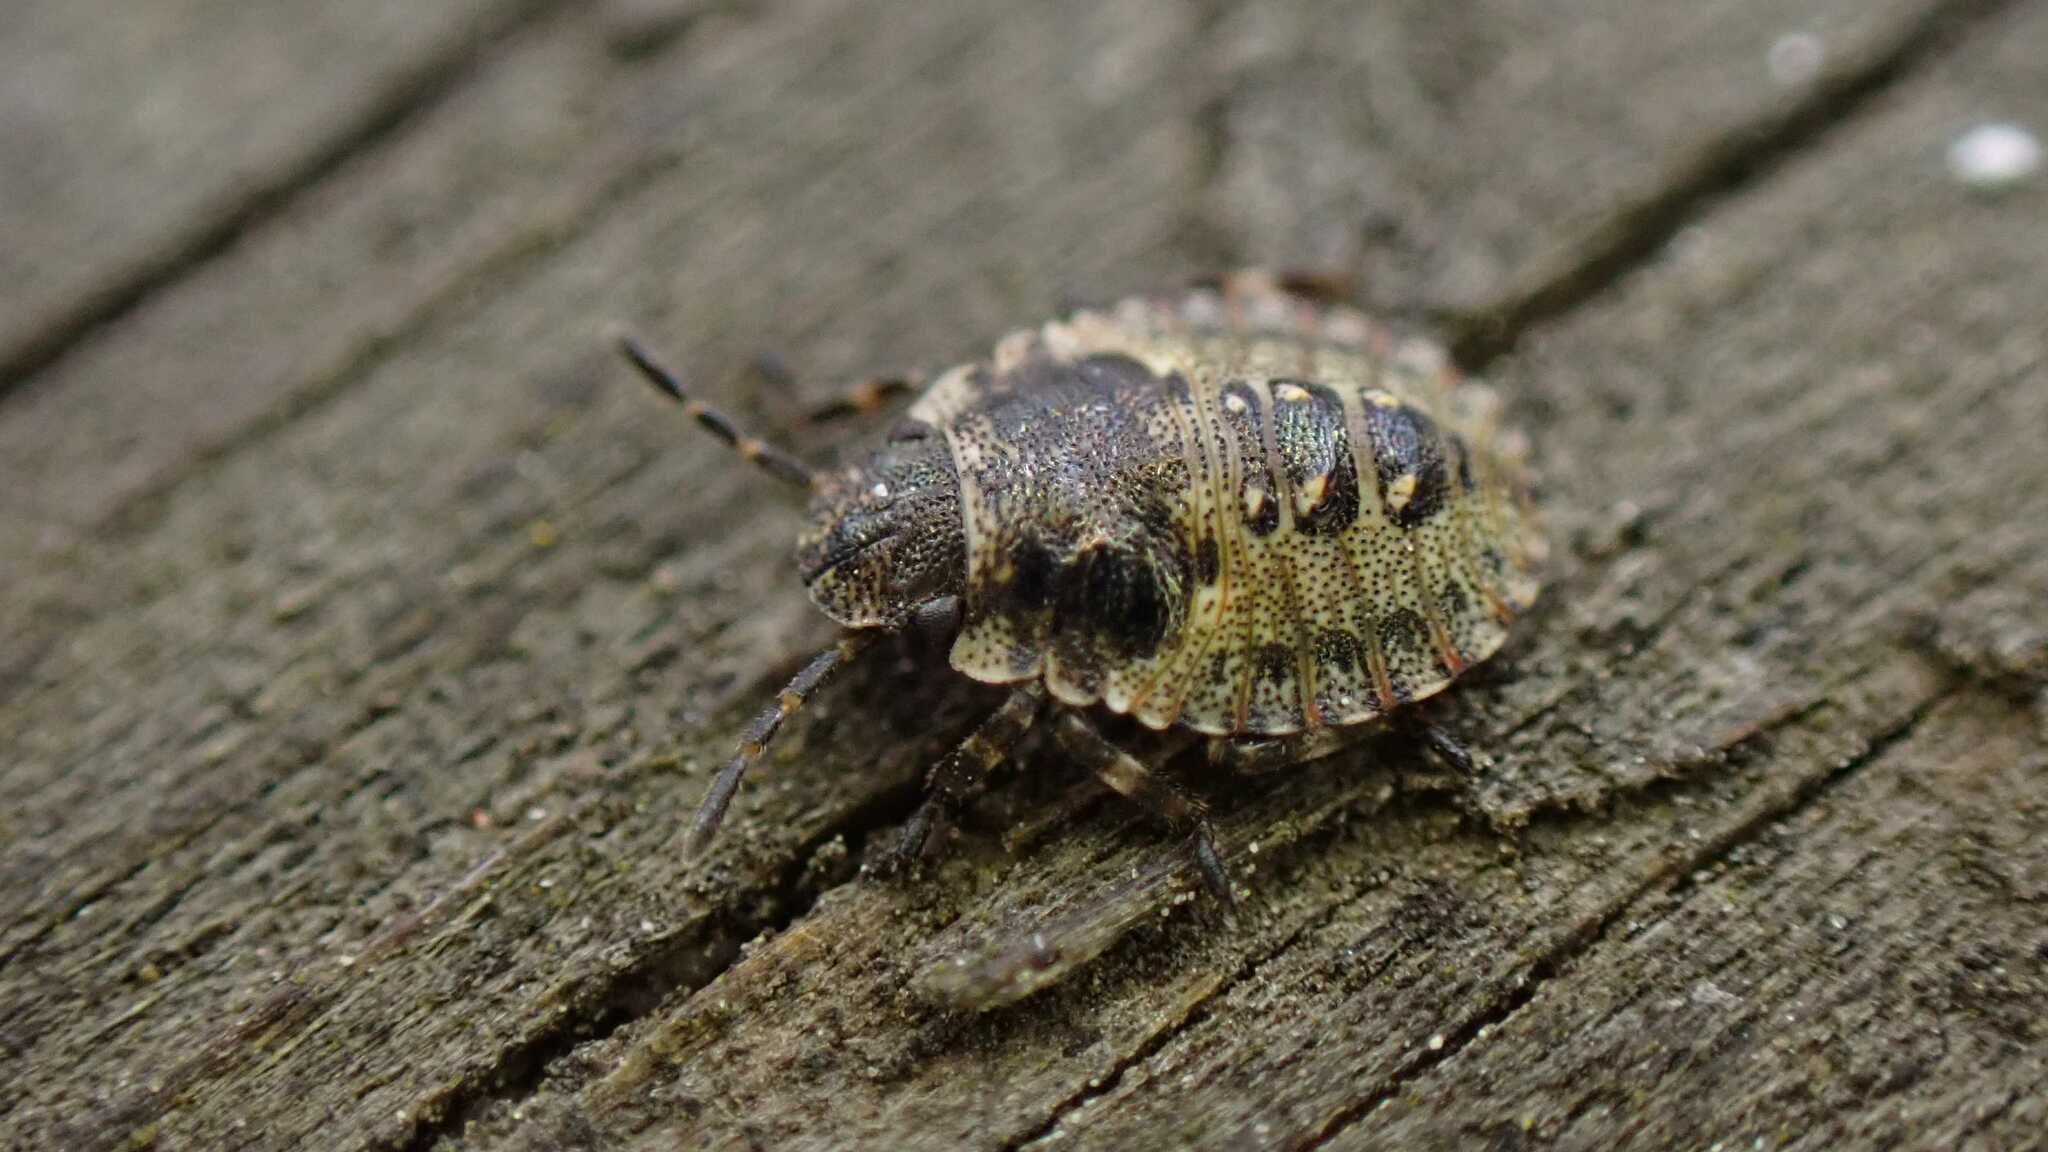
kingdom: Animalia
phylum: Arthropoda
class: Insecta
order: Hemiptera
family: Pentatomidae
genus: Pentatoma
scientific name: Pentatoma rufipes
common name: Forest bug
